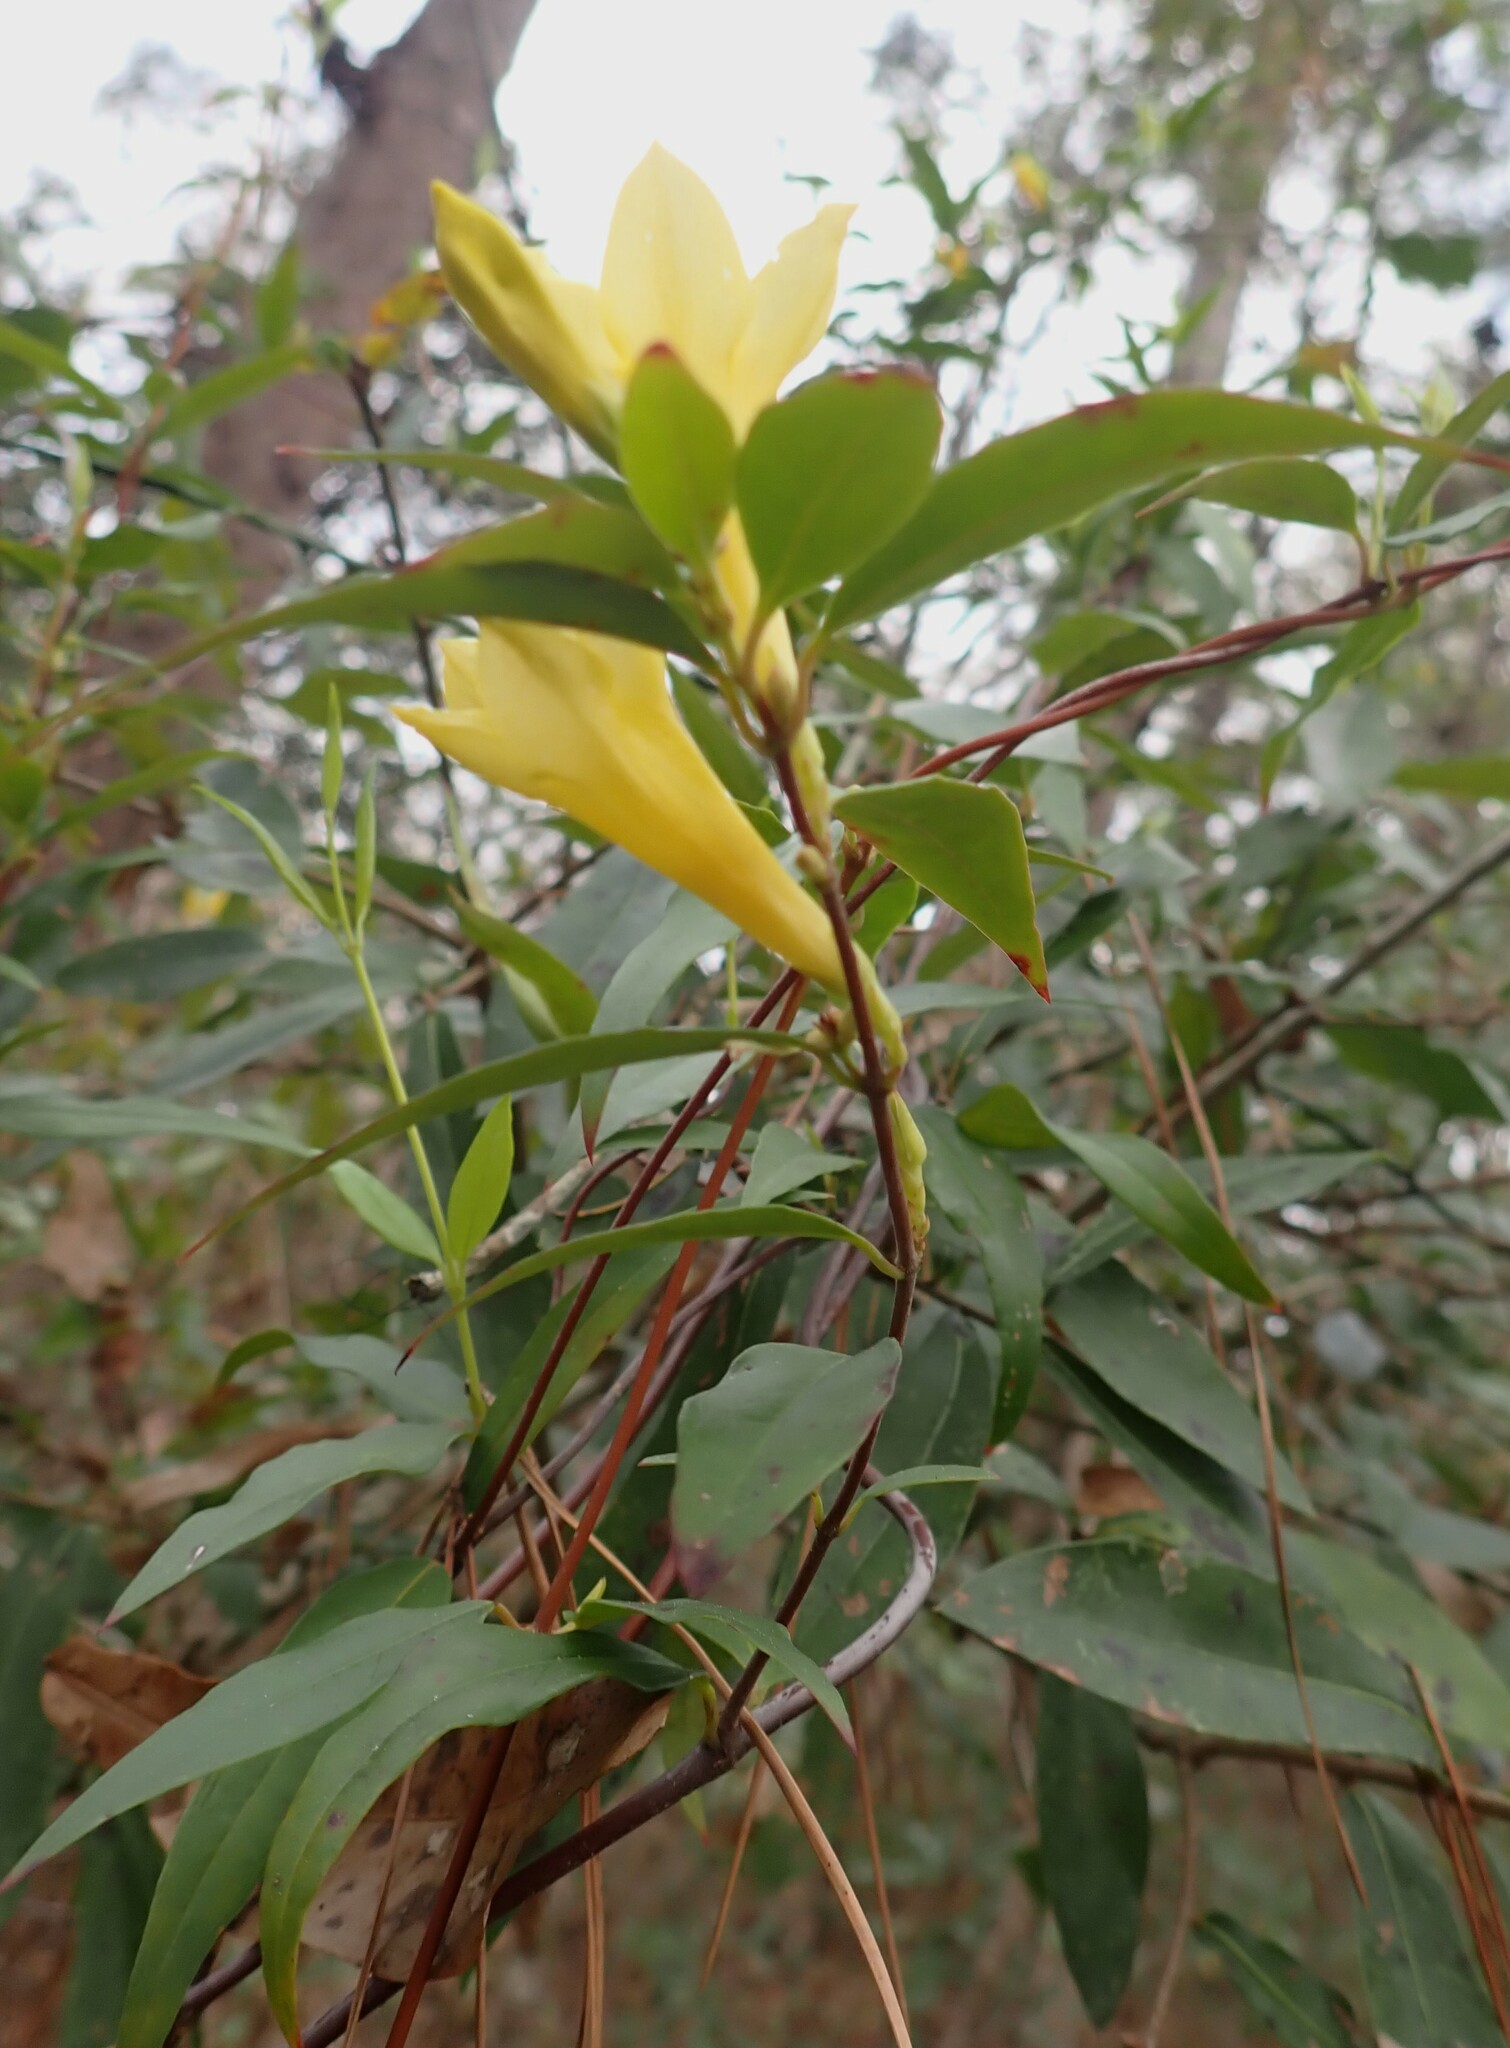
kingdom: Plantae
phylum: Tracheophyta
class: Magnoliopsida
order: Gentianales
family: Gelsemiaceae
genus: Gelsemium
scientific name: Gelsemium sempervirens
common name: Carolina-jasmine
